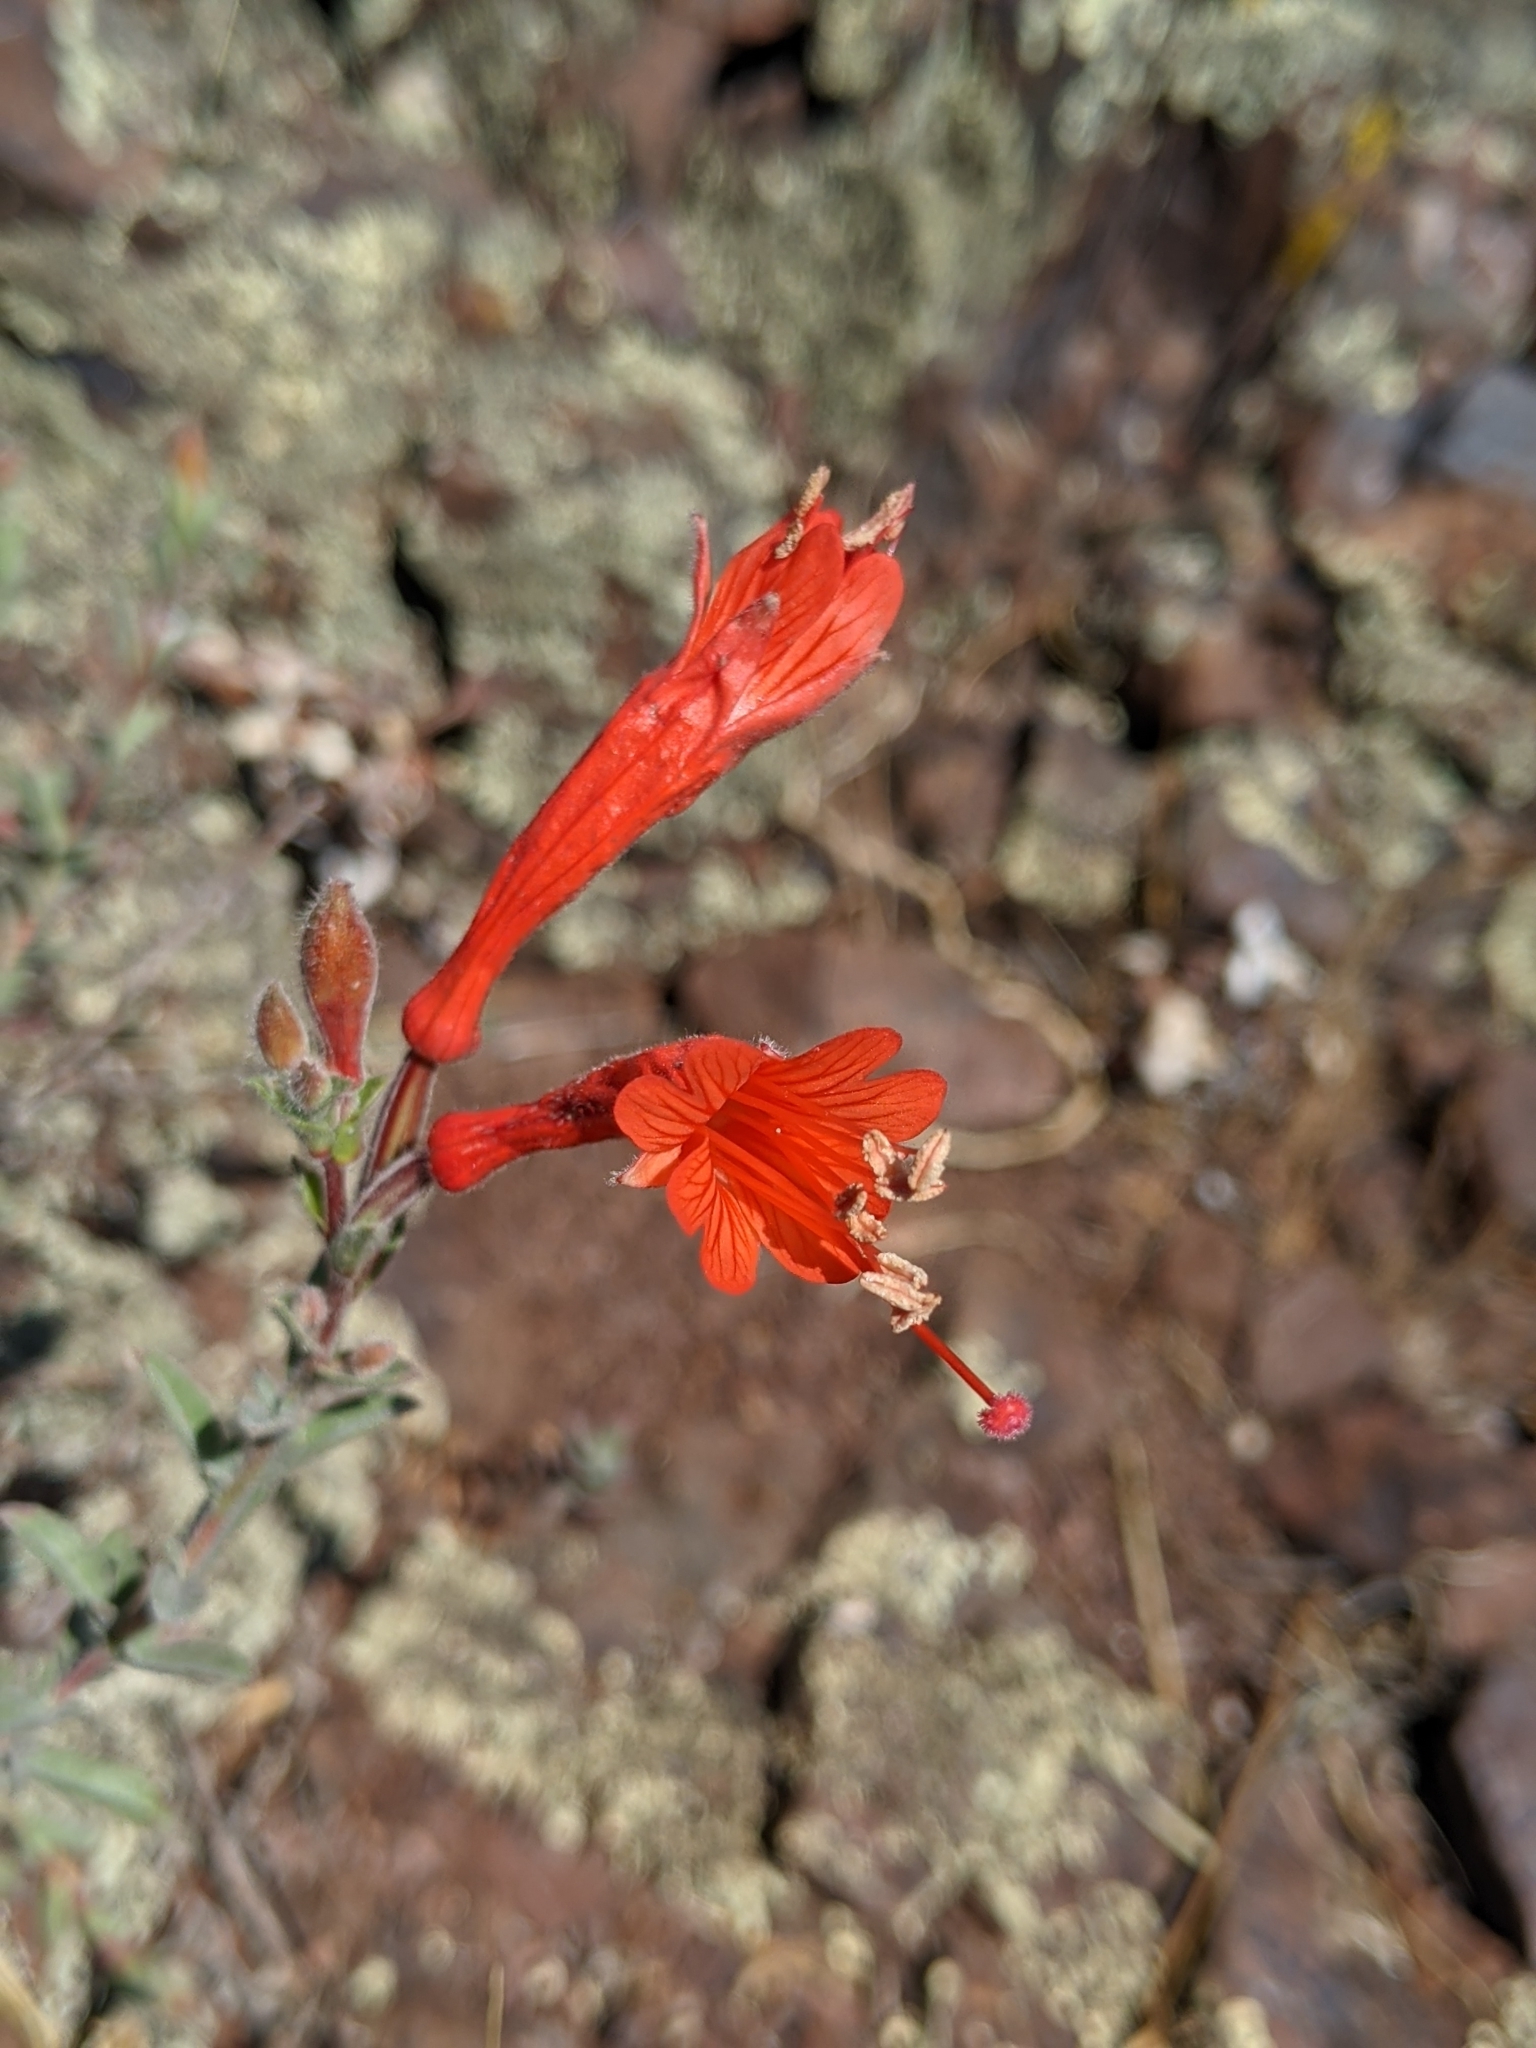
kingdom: Plantae
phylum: Tracheophyta
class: Magnoliopsida
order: Myrtales
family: Onagraceae
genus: Epilobium
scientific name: Epilobium canum
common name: California-fuchsia
